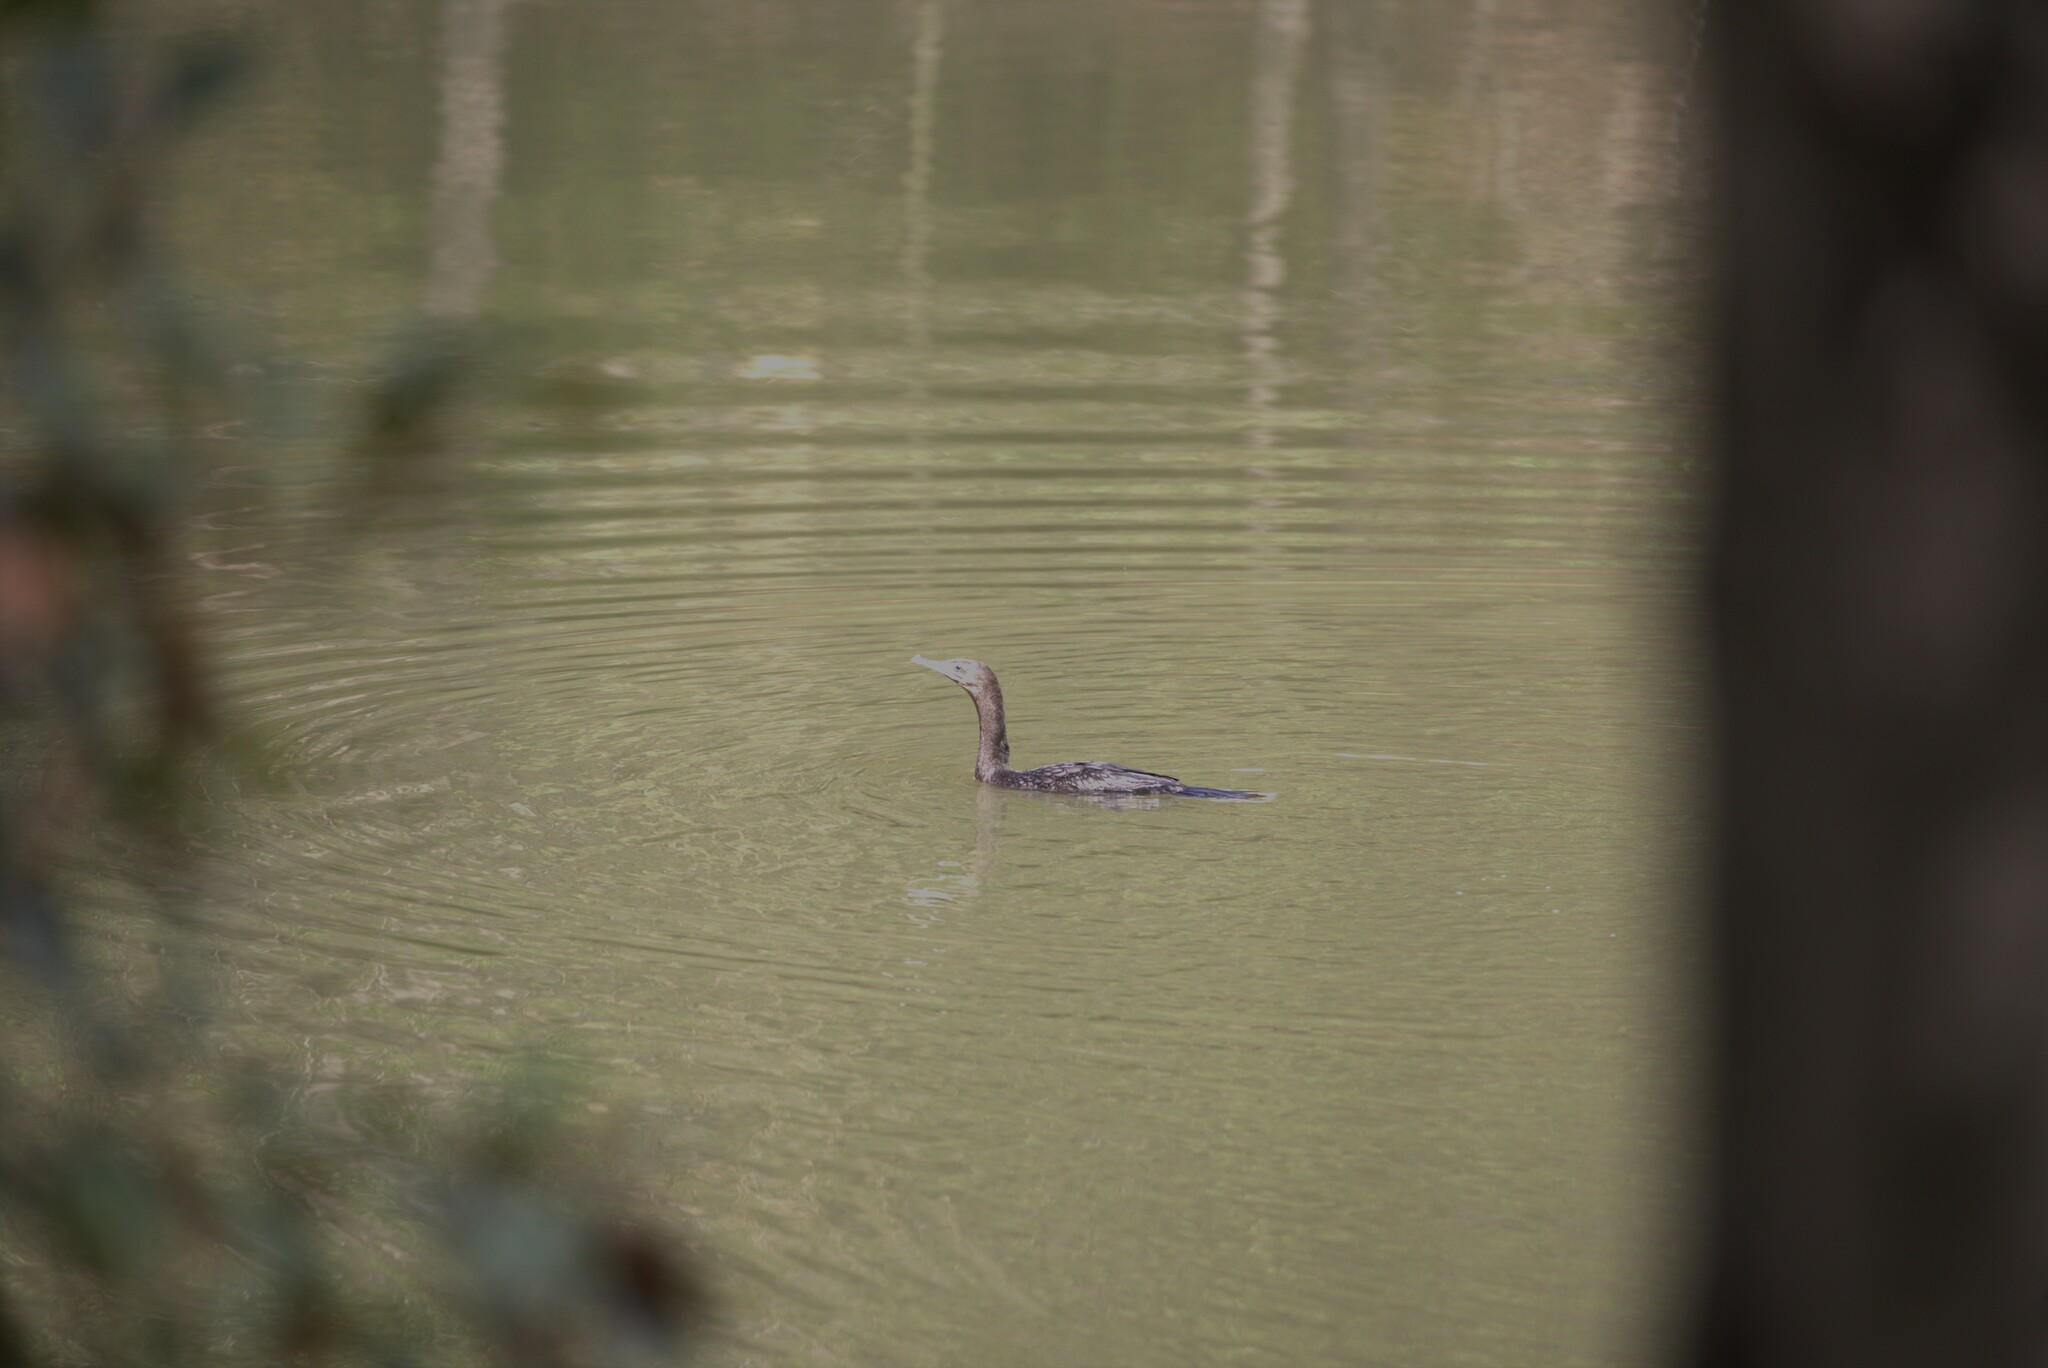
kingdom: Animalia
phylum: Chordata
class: Aves
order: Suliformes
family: Phalacrocoracidae
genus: Phalacrocorax
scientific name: Phalacrocorax sulcirostris
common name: Little black cormorant
